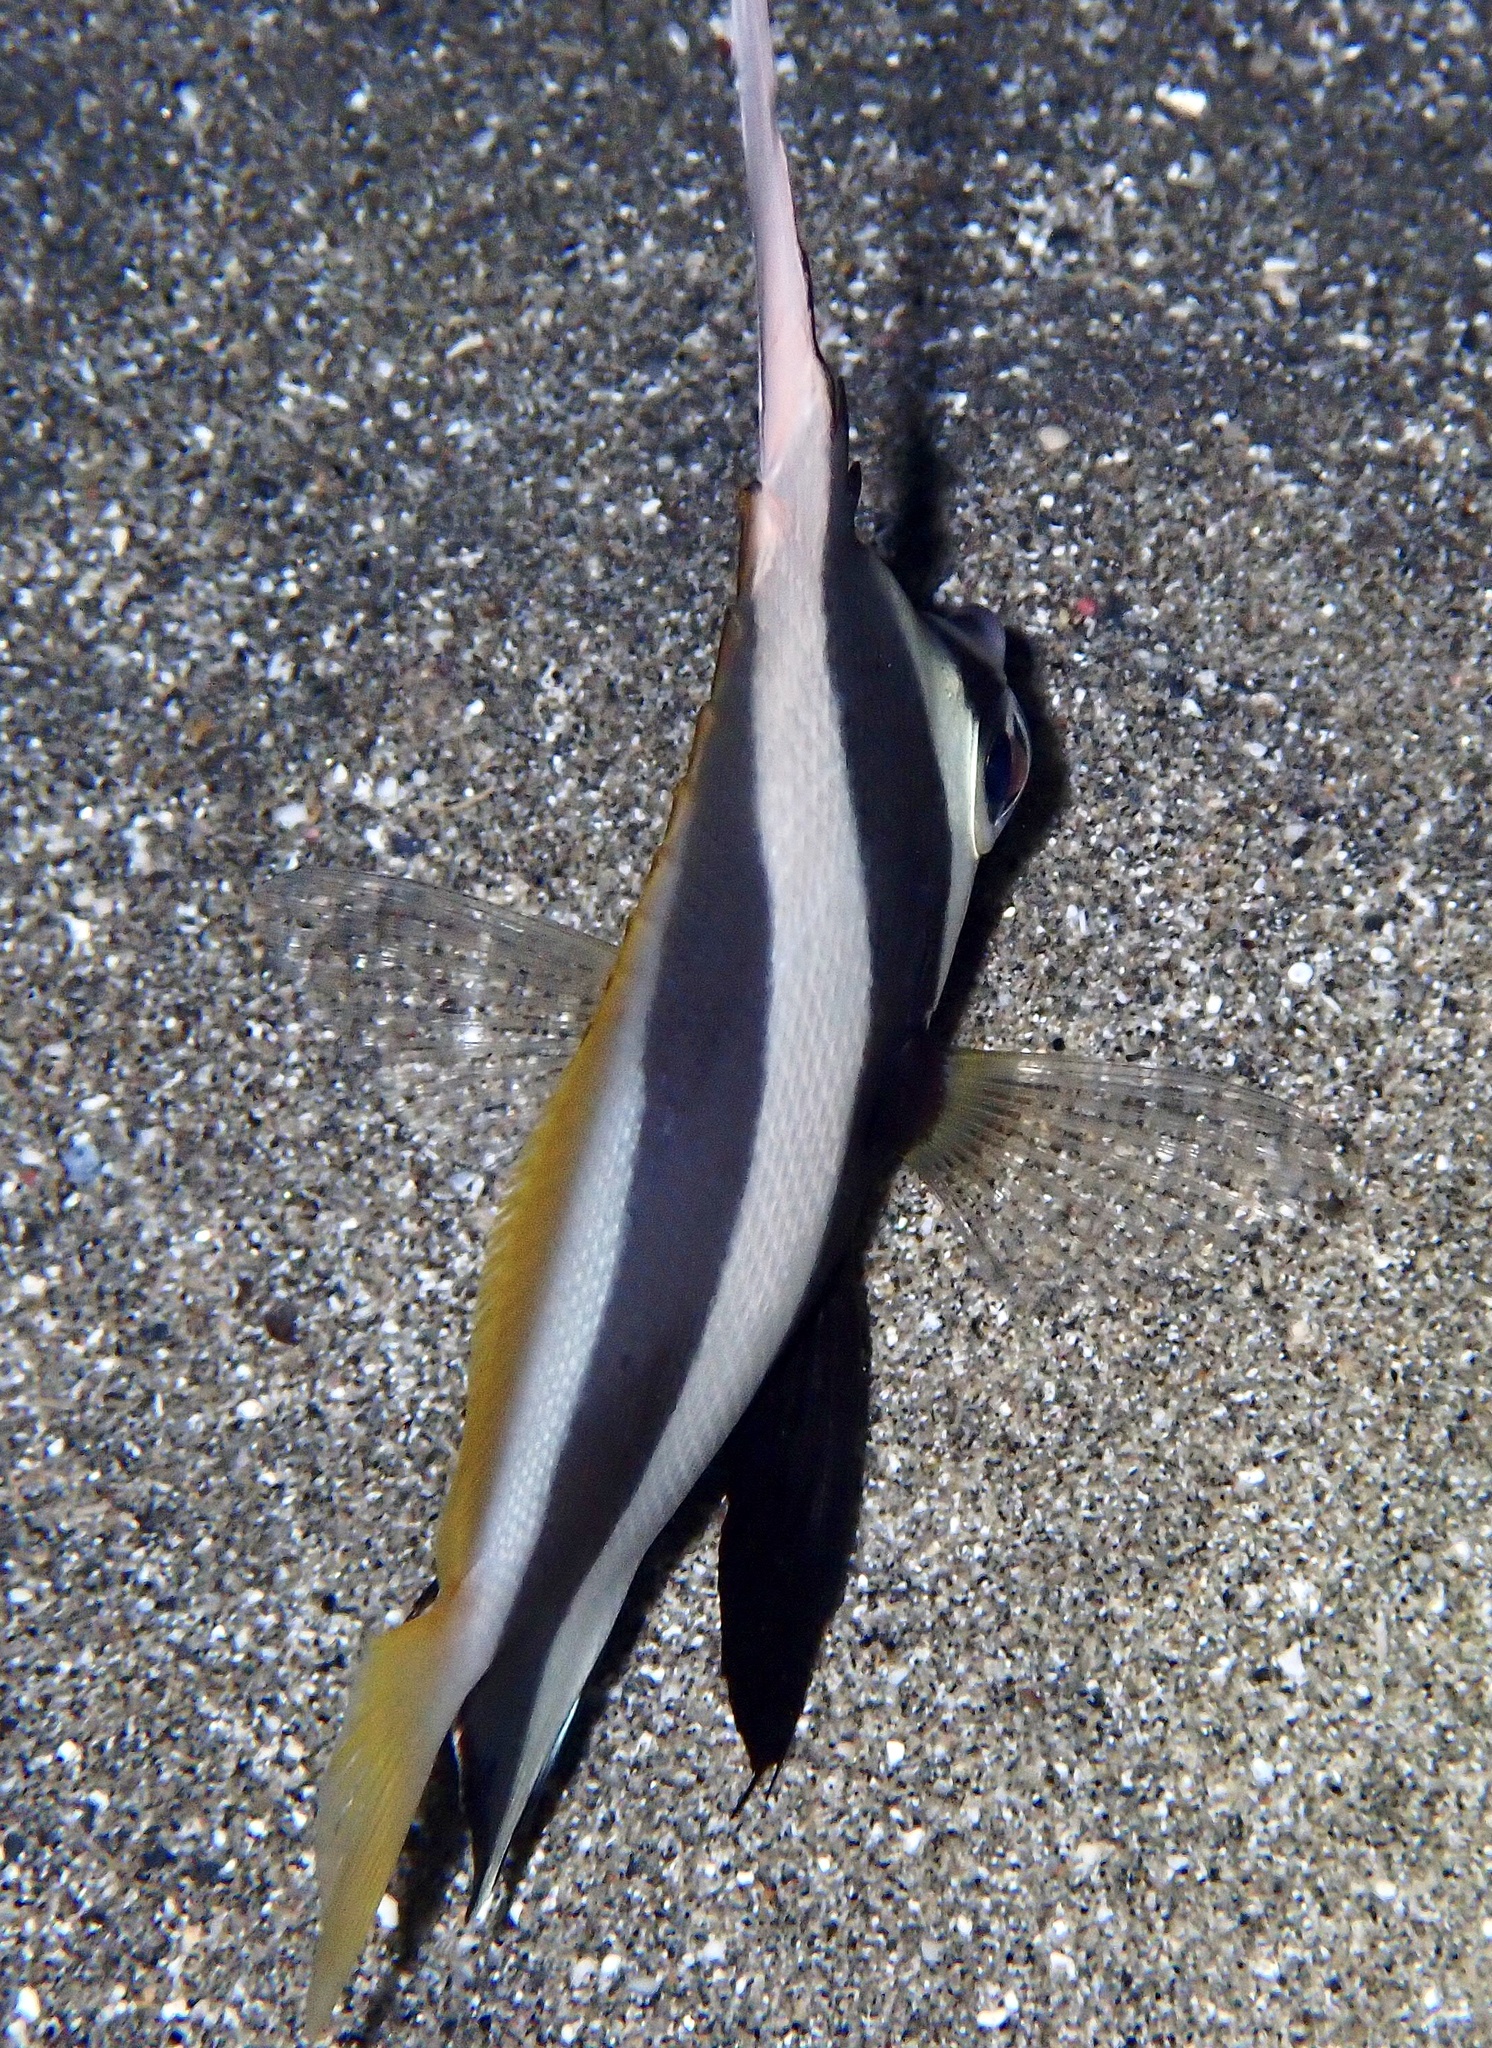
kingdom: Animalia
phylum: Chordata
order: Perciformes
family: Chaetodontidae
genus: Heniochus
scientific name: Heniochus diphreutes
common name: Pennantfish
